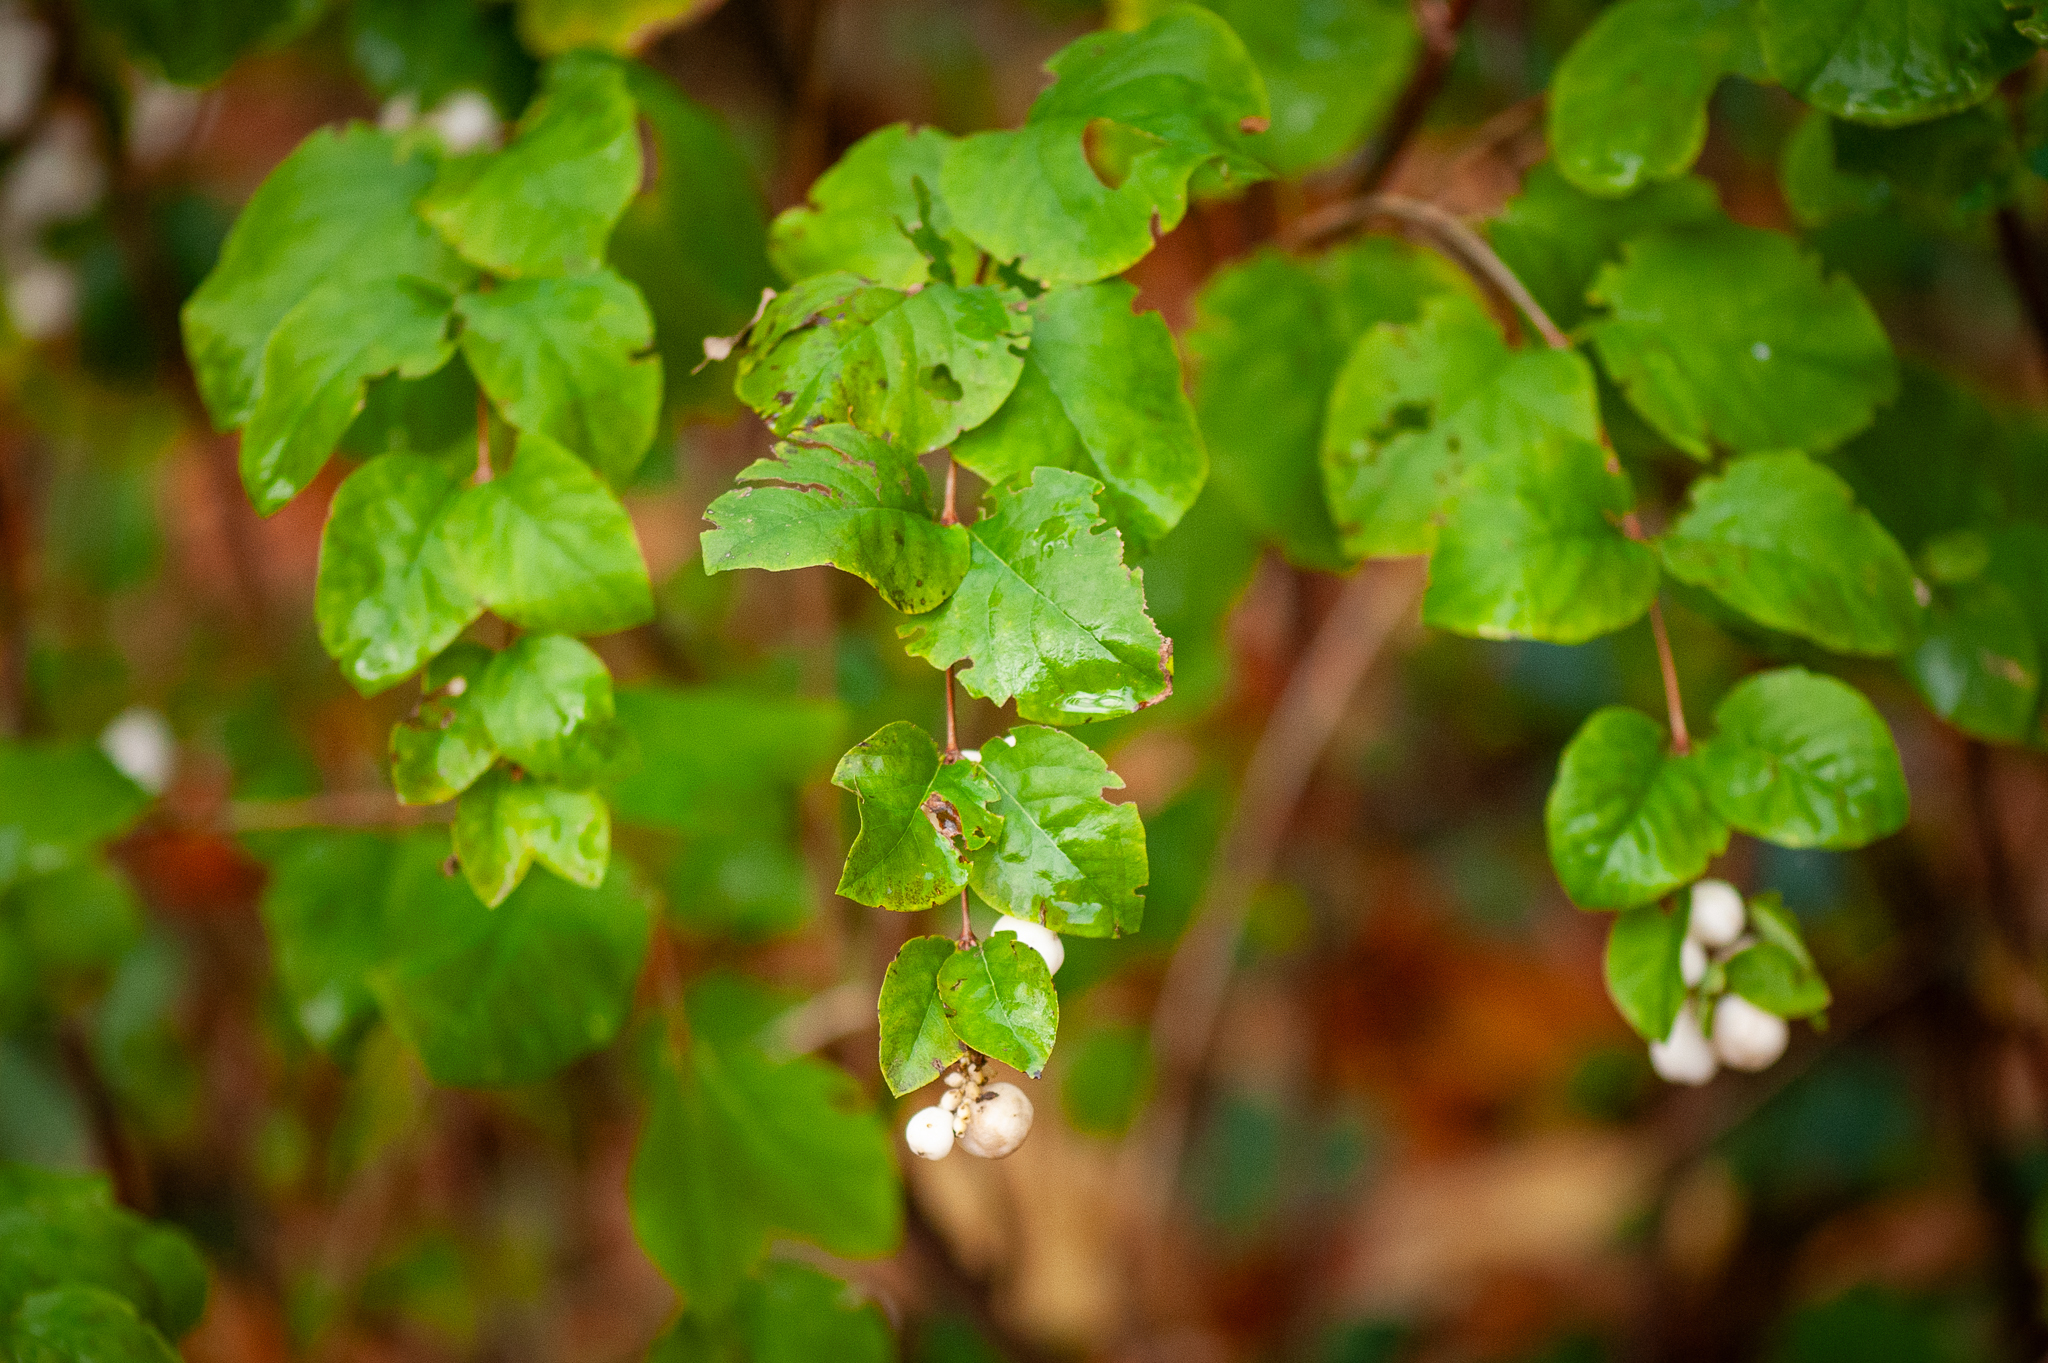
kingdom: Plantae
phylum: Tracheophyta
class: Magnoliopsida
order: Dipsacales
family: Caprifoliaceae
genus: Symphoricarpos
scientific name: Symphoricarpos albus
